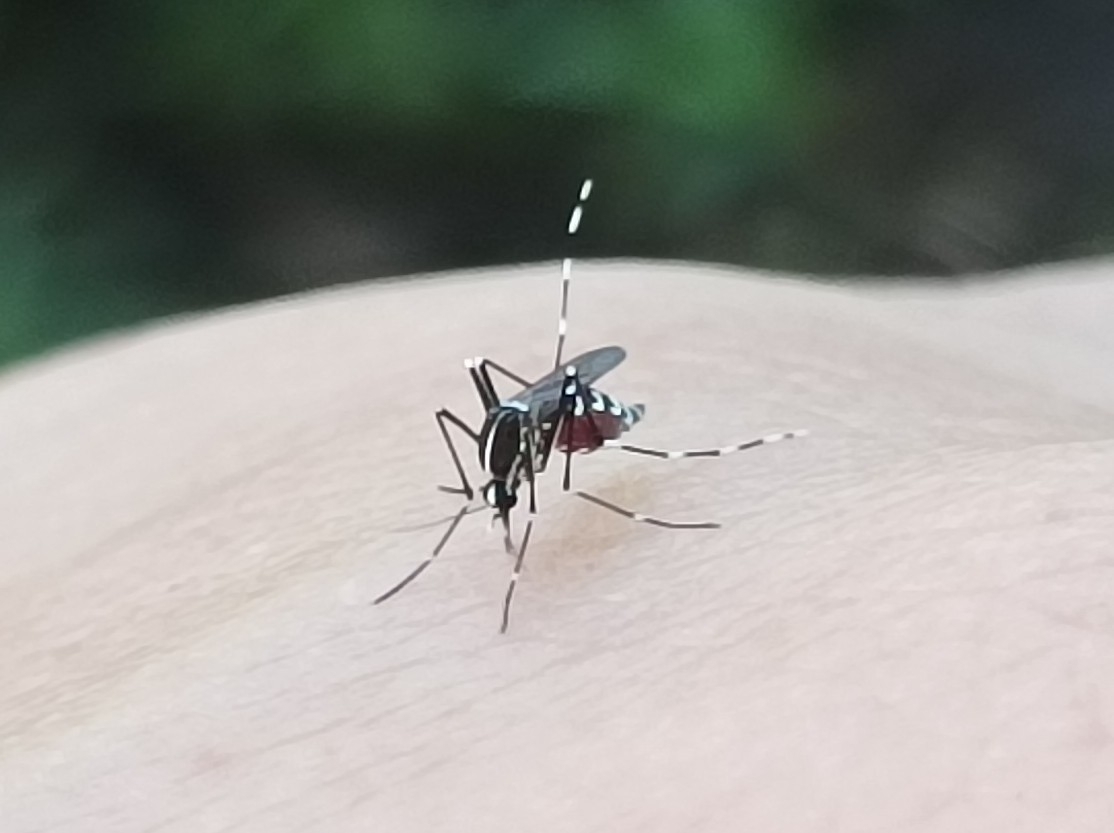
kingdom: Animalia
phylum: Arthropoda
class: Insecta
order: Diptera
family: Culicidae
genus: Aedes
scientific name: Aedes albopictus
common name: Tiger mosquito
